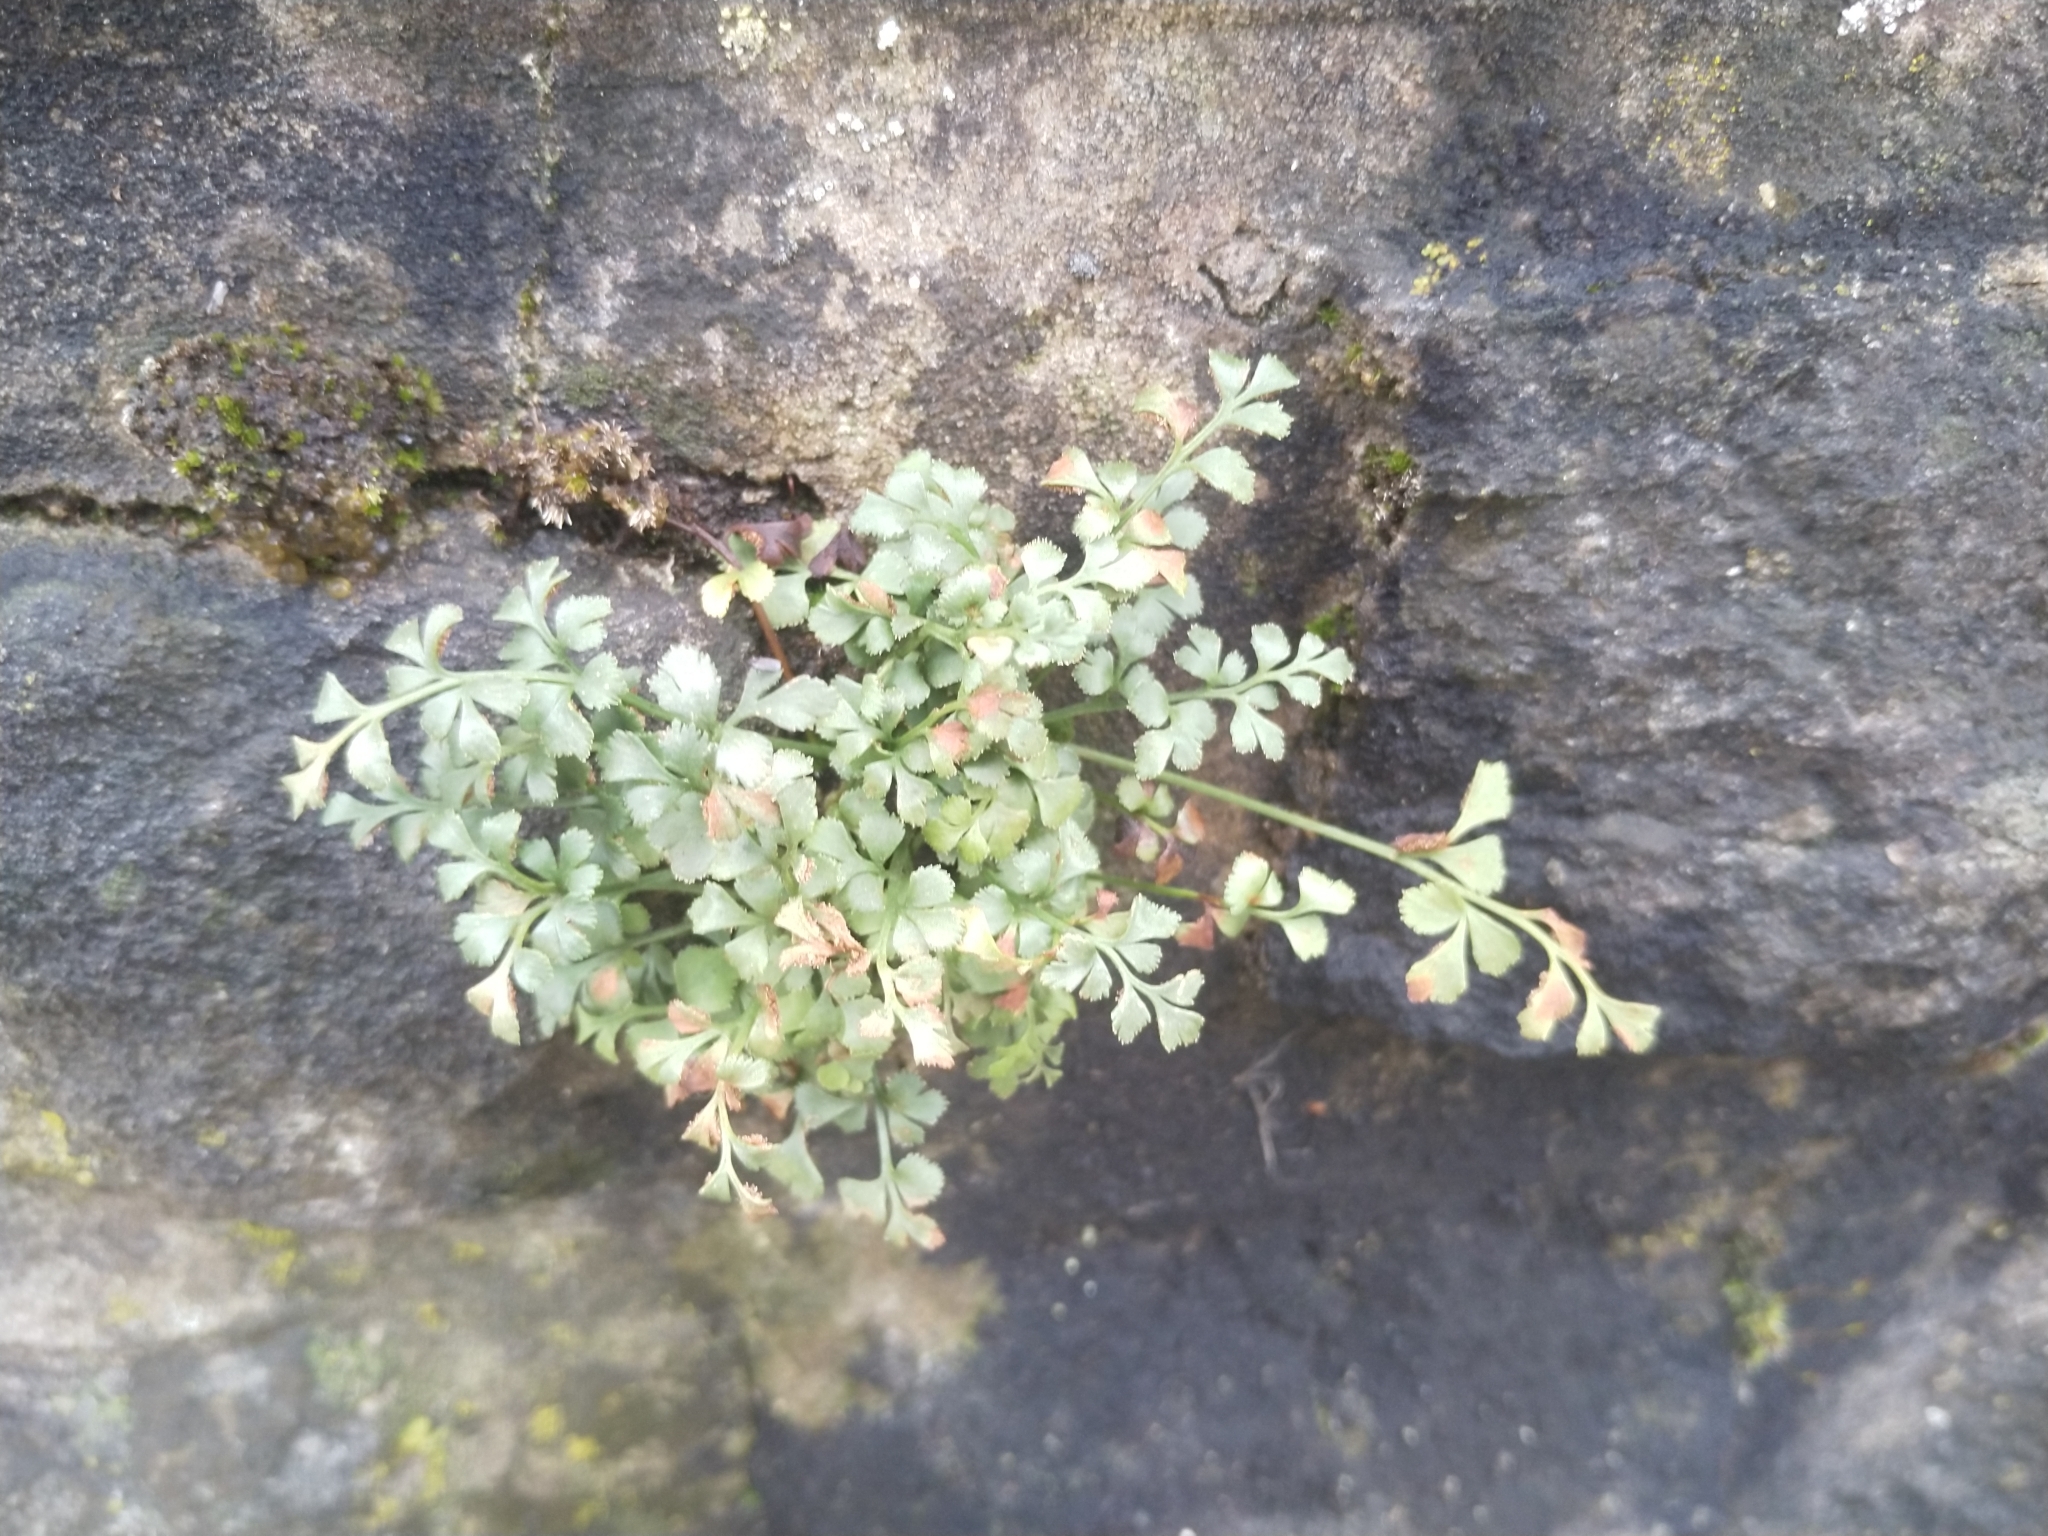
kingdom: Plantae
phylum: Tracheophyta
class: Polypodiopsida
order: Polypodiales
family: Aspleniaceae
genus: Asplenium
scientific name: Asplenium ruta-muraria
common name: Wall-rue
